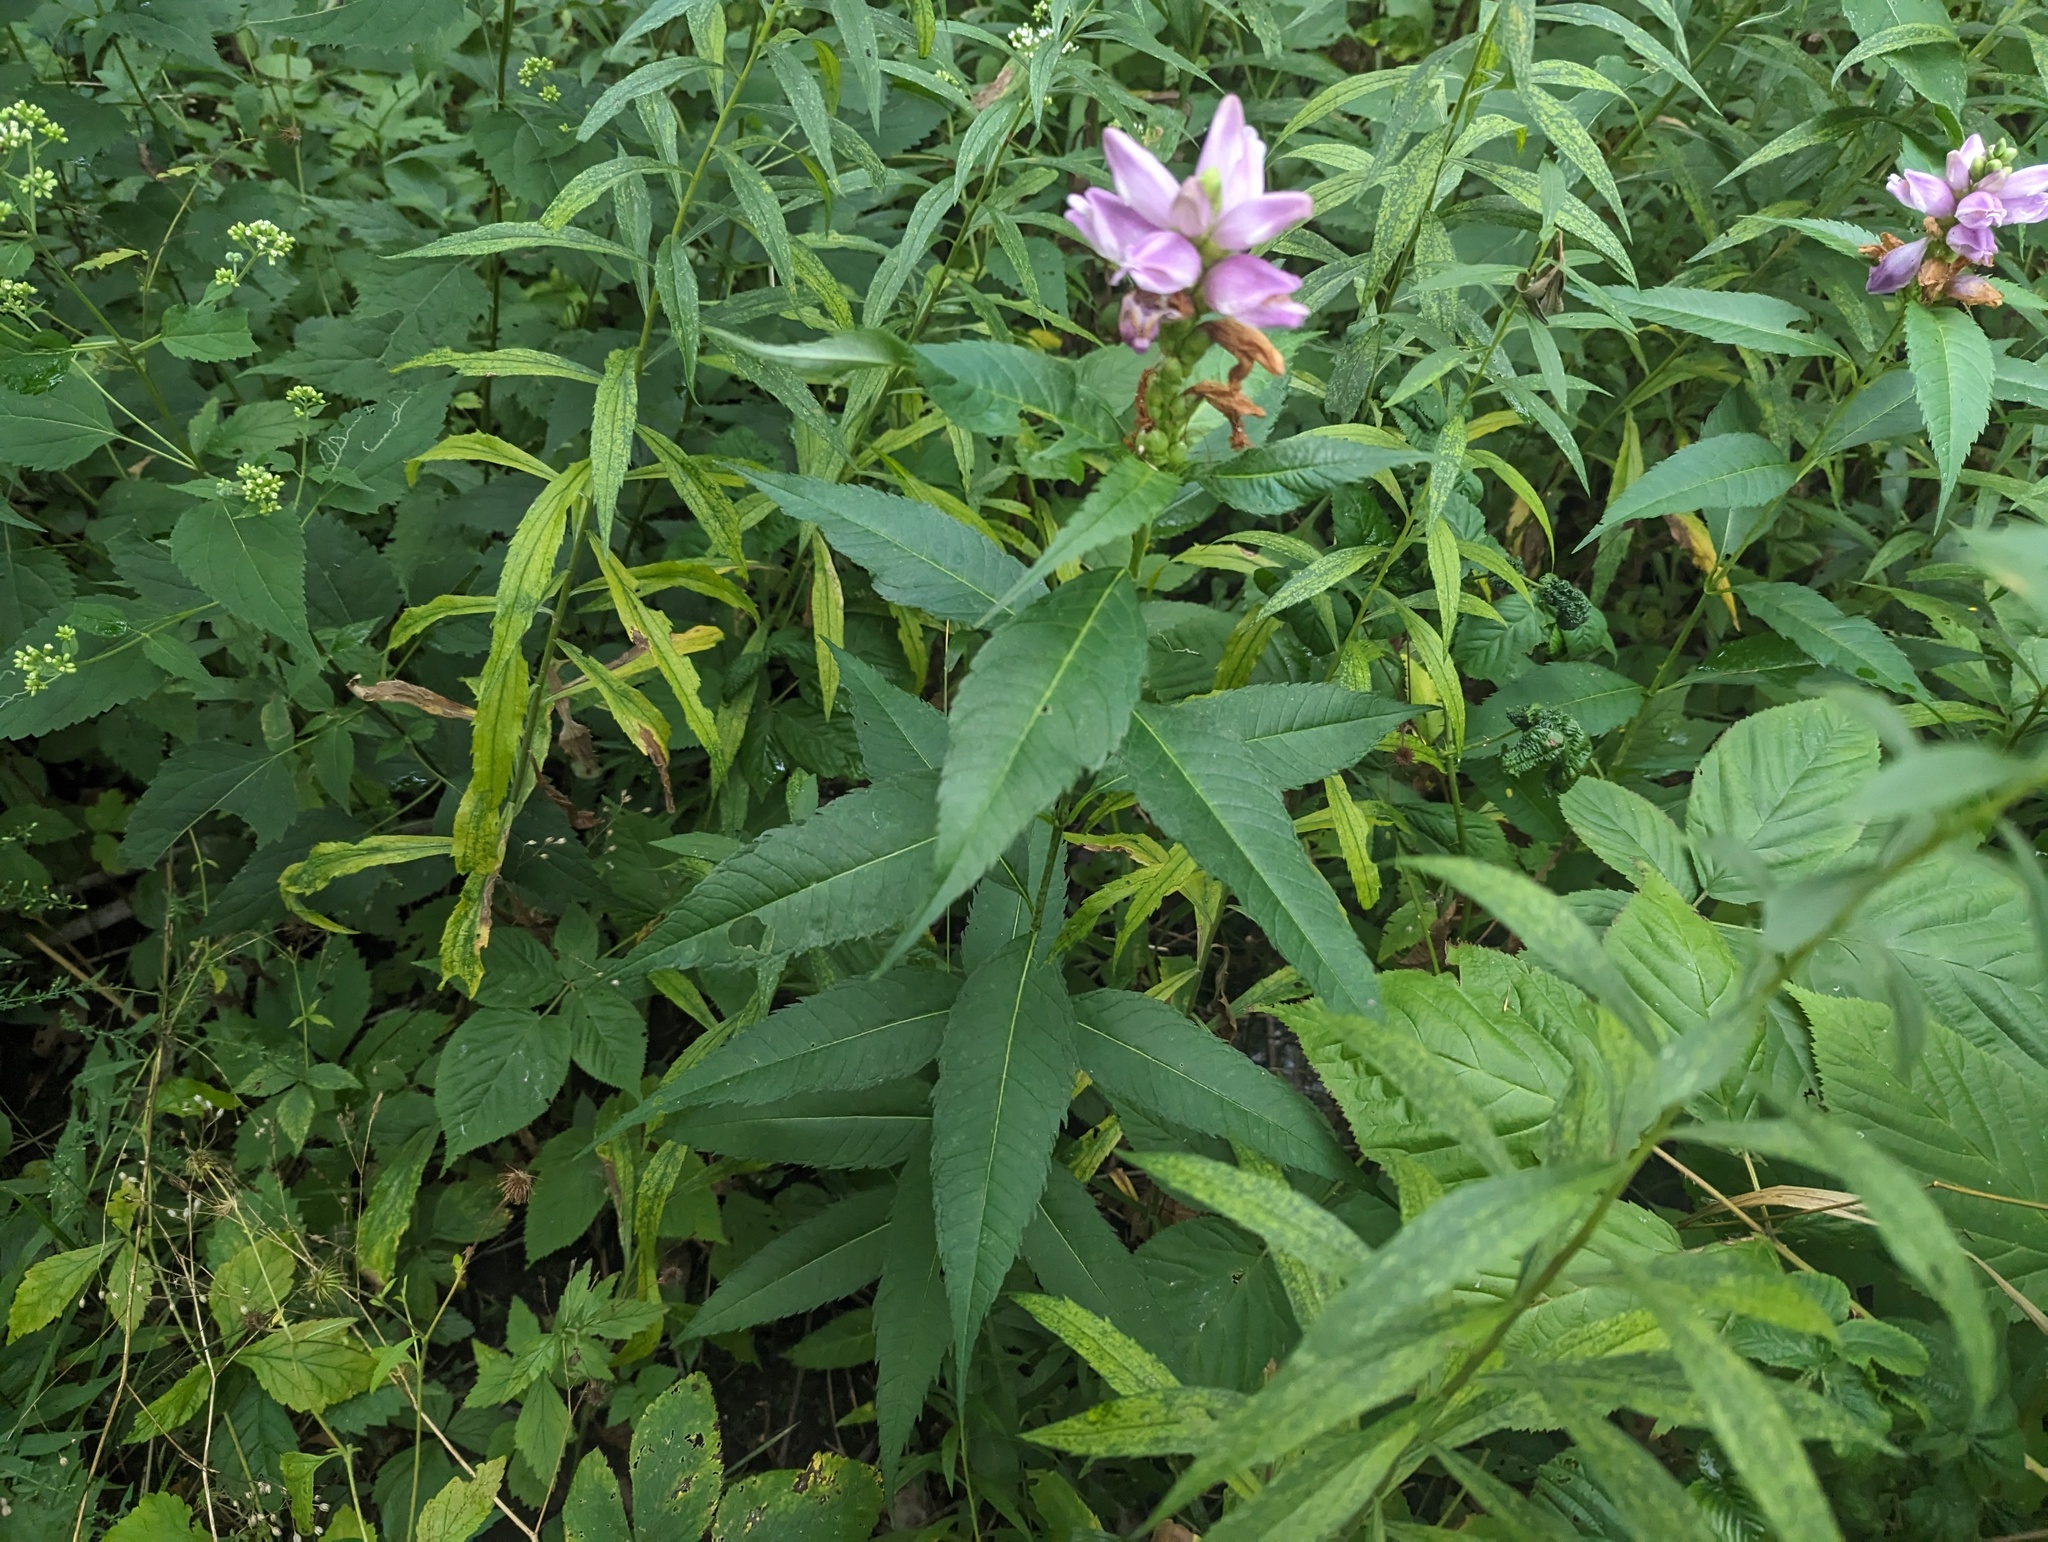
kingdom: Plantae
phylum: Tracheophyta
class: Magnoliopsida
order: Lamiales
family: Plantaginaceae
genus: Chelone
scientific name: Chelone obliqua
